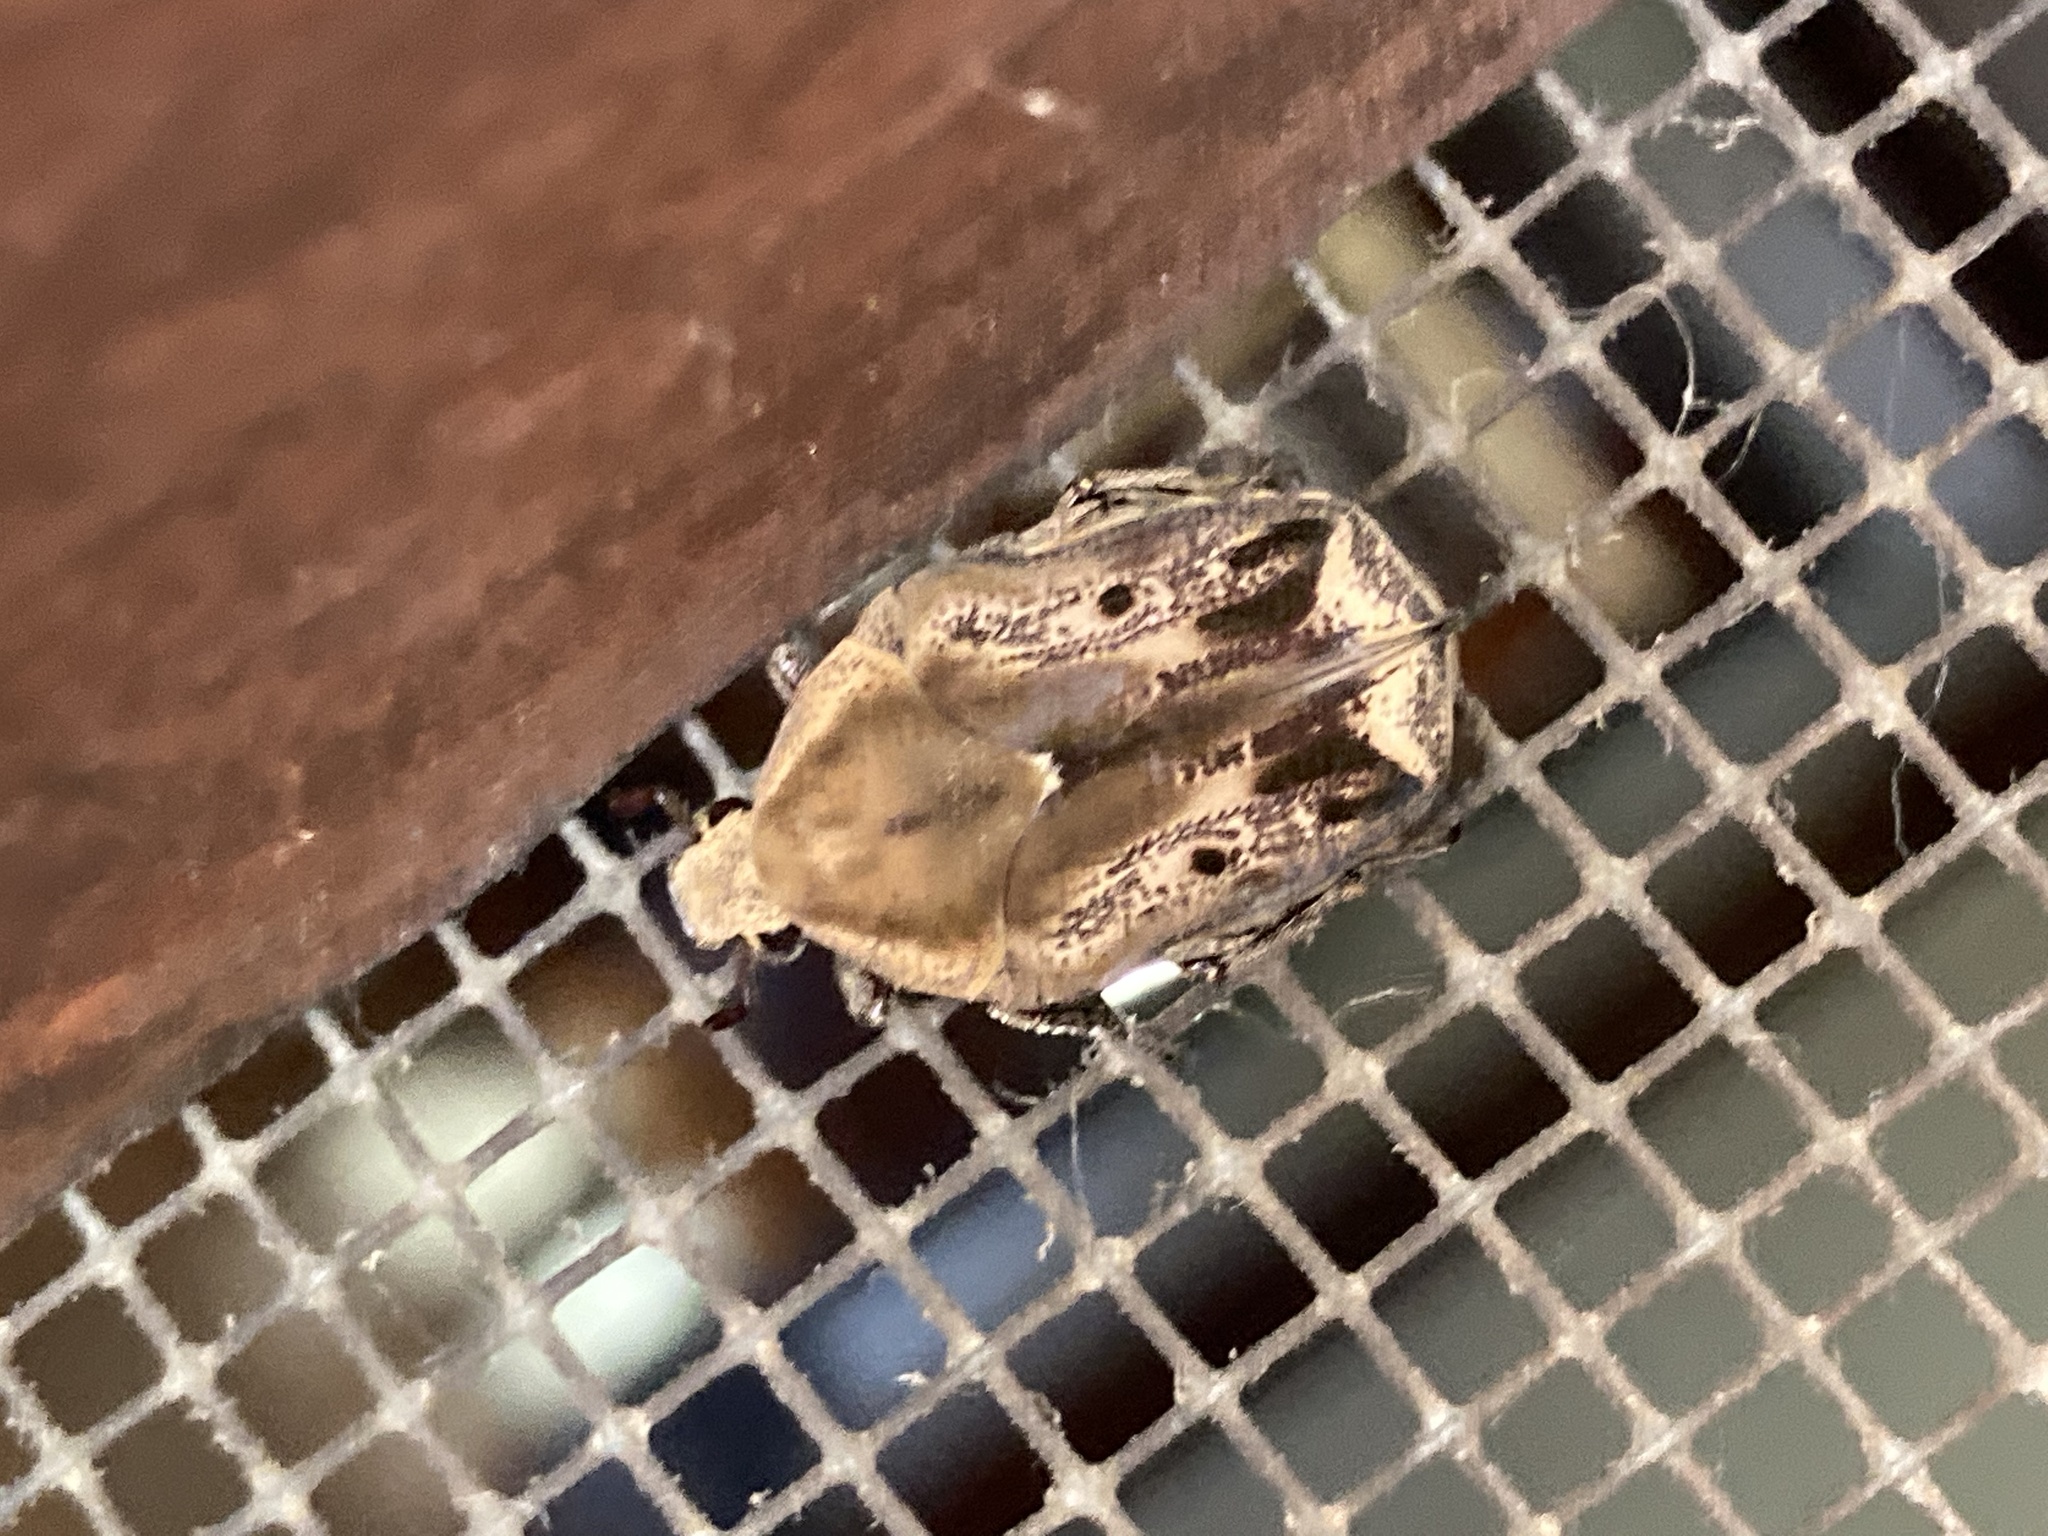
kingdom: Animalia
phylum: Arthropoda
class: Insecta
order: Coleoptera
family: Scarabaeidae
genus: Hoplopyga
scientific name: Hoplopyga liturata
